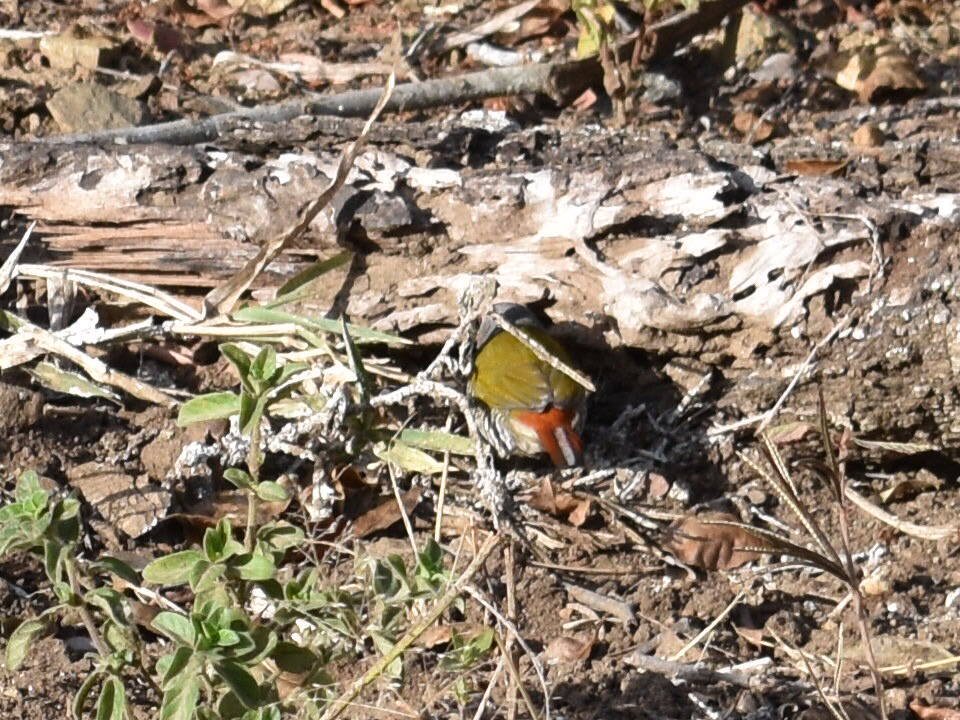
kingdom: Animalia
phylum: Chordata
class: Aves
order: Passeriformes
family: Estrildidae
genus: Pytilia
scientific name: Pytilia melba
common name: Green-winged pytilia
